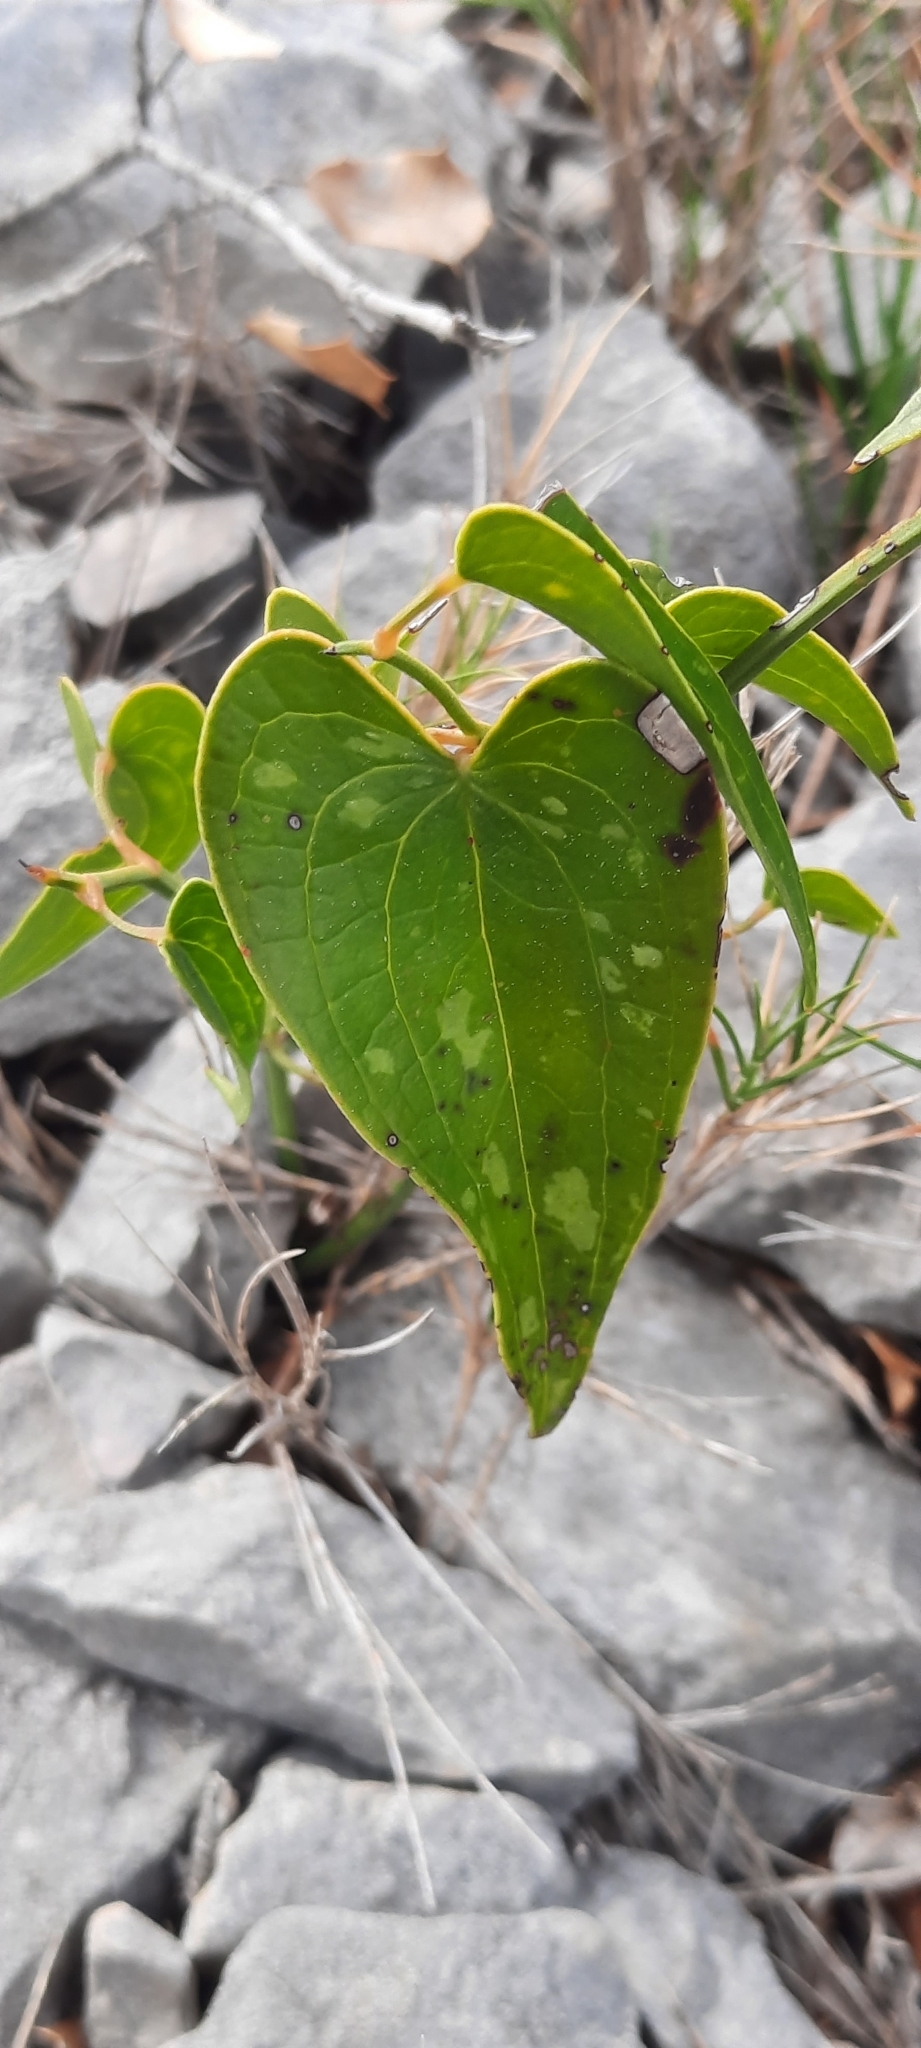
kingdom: Plantae
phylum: Tracheophyta
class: Liliopsida
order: Liliales
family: Smilacaceae
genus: Smilax
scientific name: Smilax aspera
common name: Common smilax
